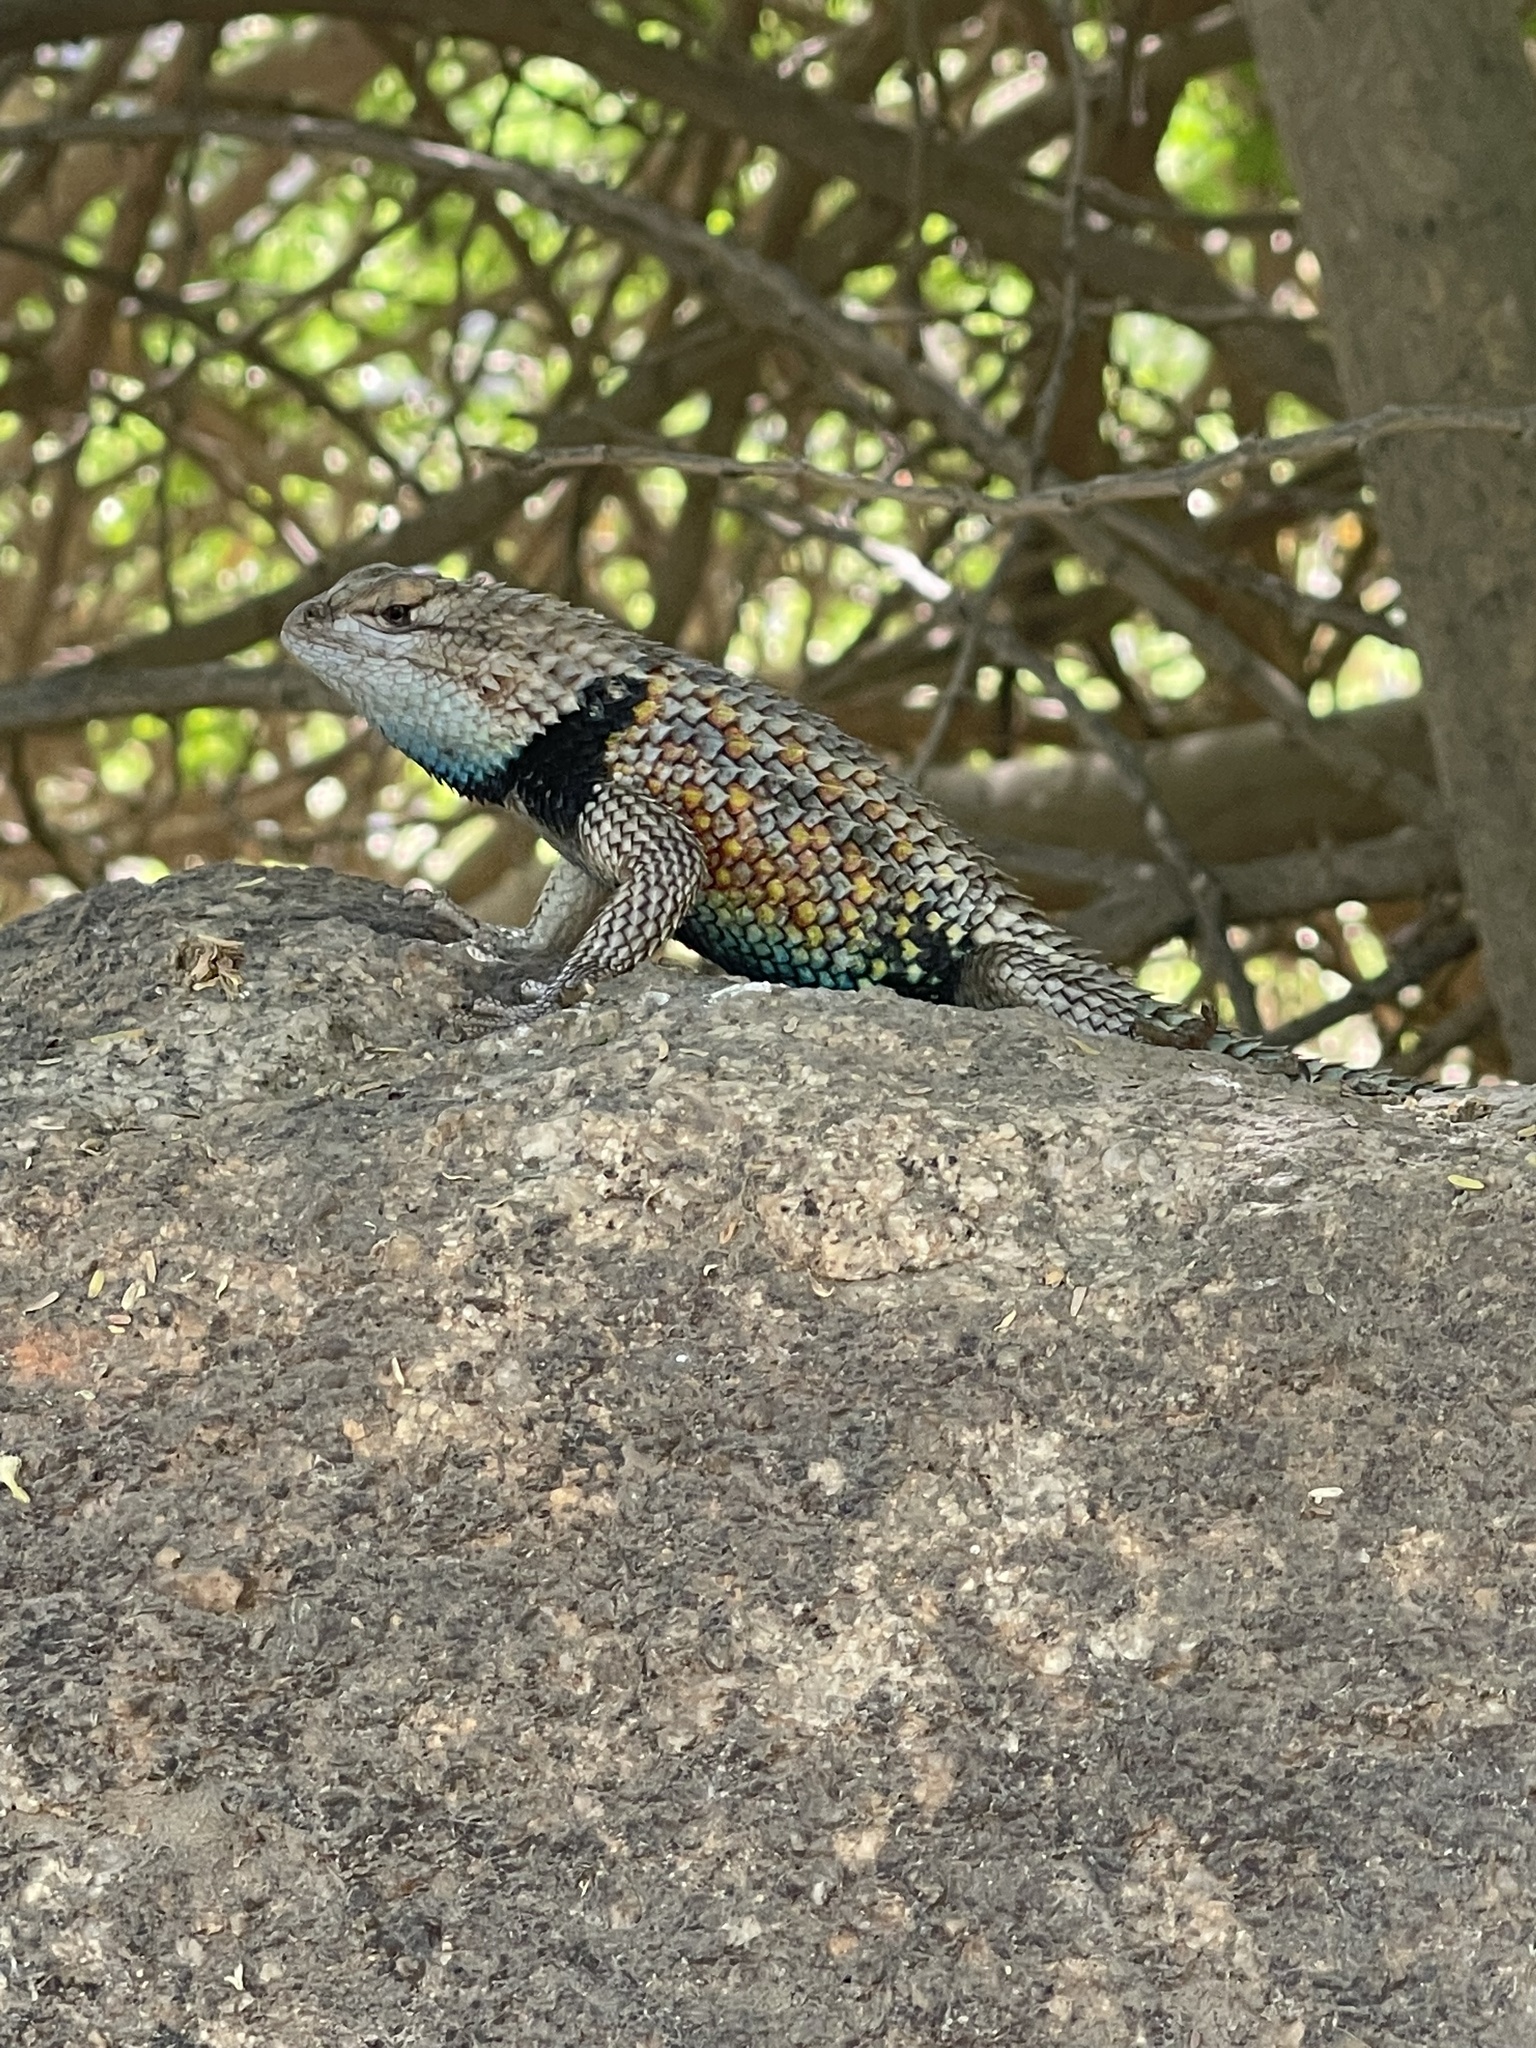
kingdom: Animalia
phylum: Chordata
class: Squamata
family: Phrynosomatidae
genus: Sceloporus
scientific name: Sceloporus magister
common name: Desert spiny lizard
